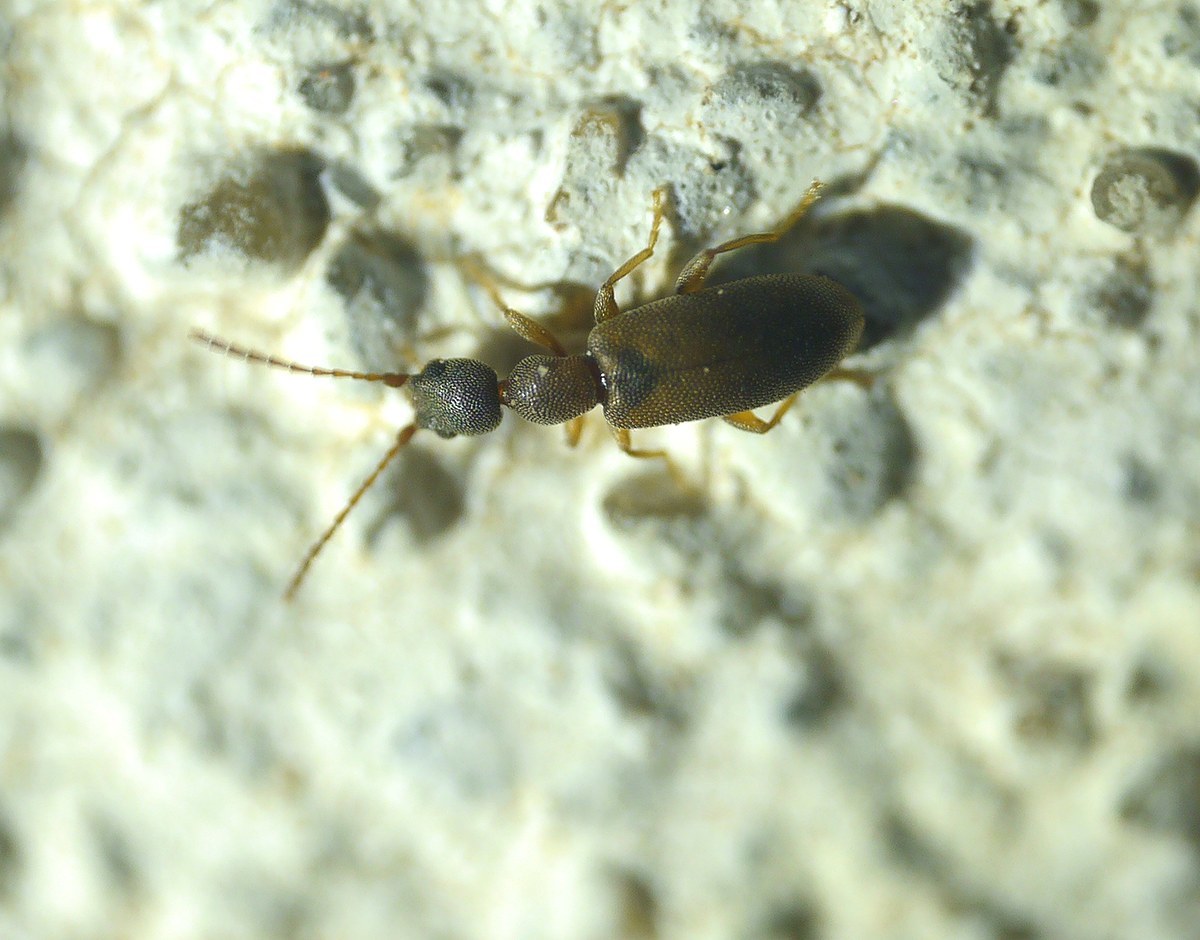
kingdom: Animalia
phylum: Arthropoda
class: Insecta
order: Coleoptera
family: Anthicidae
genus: Endomia
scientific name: Endomia tenuicollis
